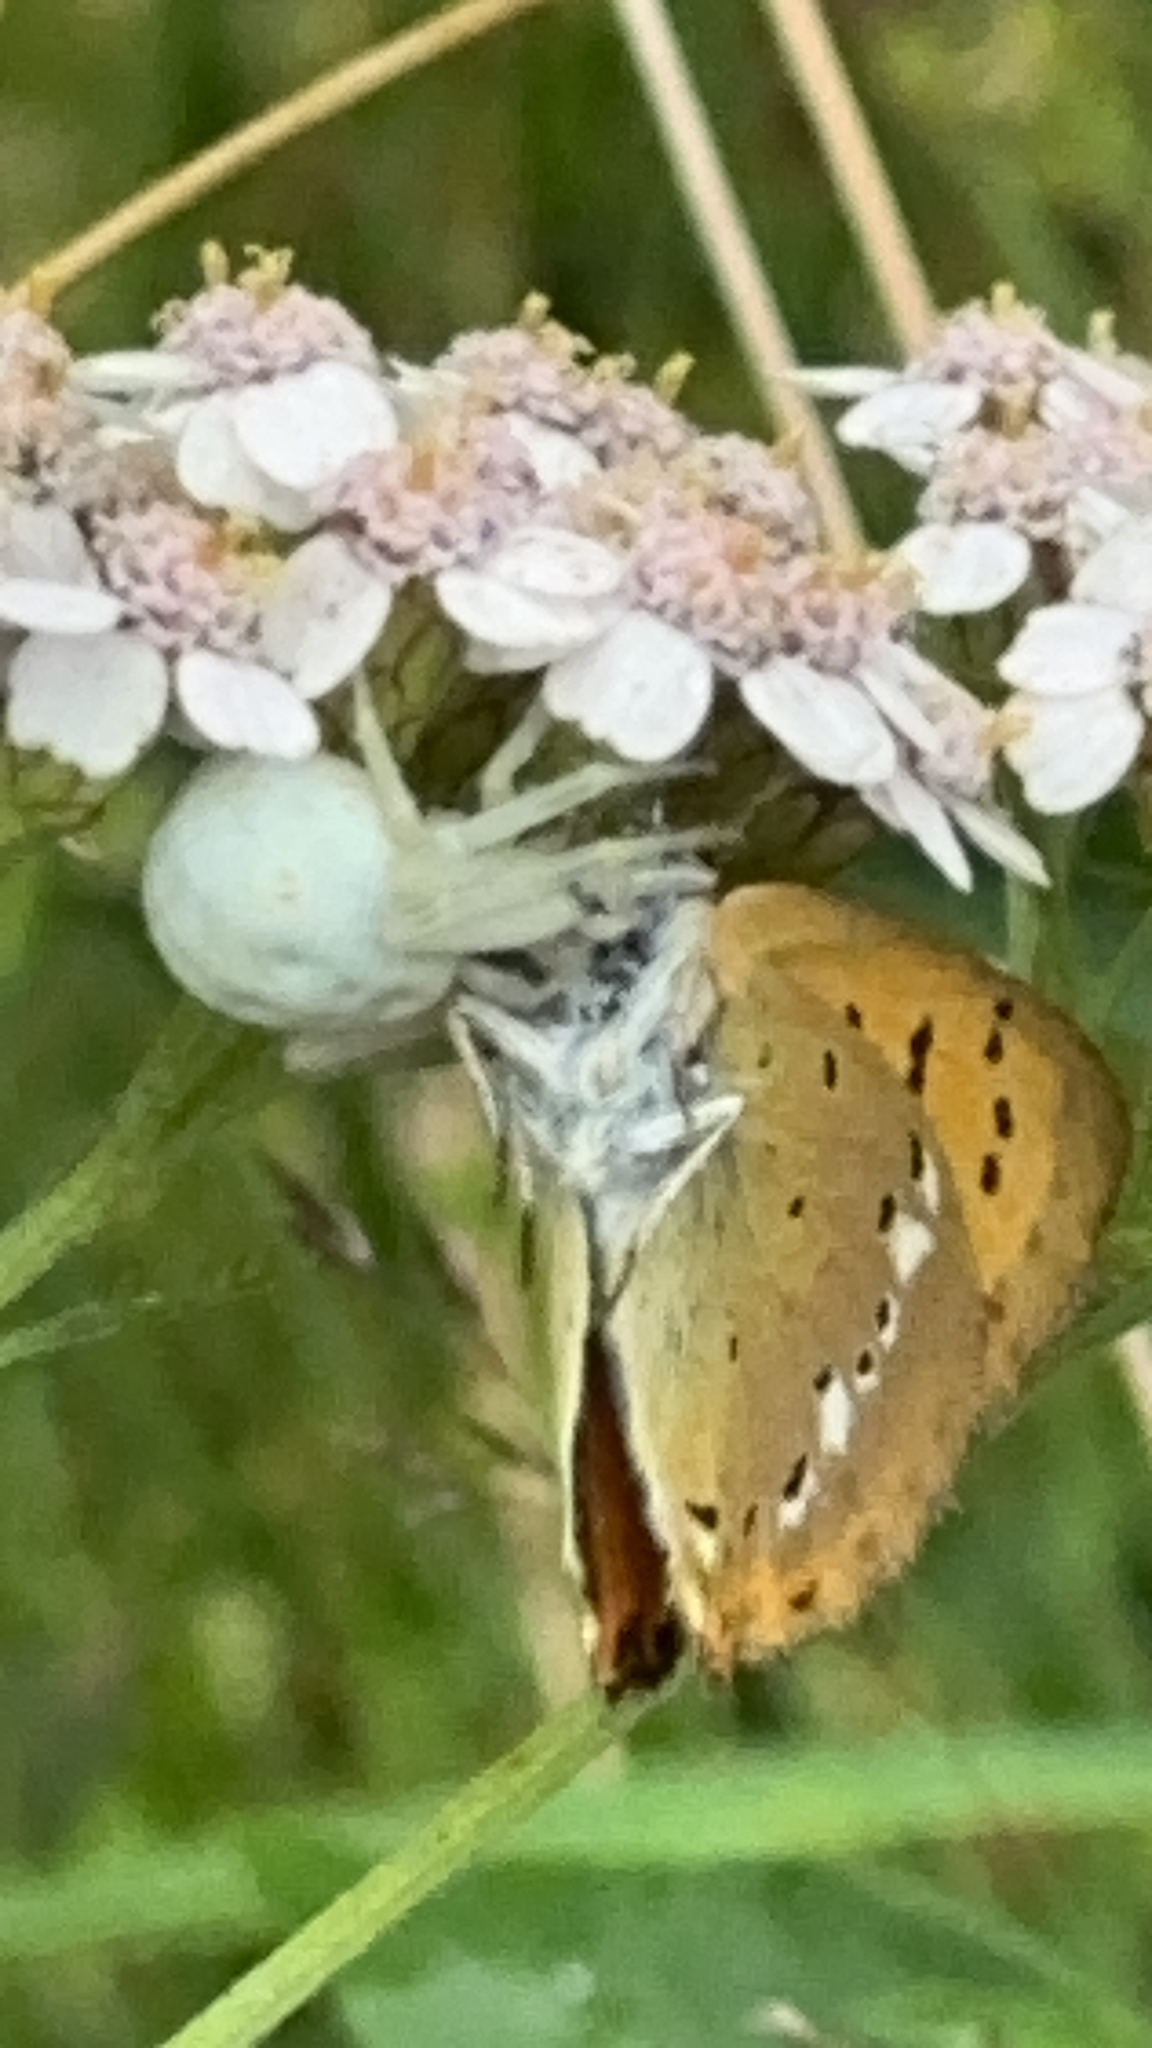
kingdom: Animalia
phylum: Arthropoda
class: Arachnida
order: Araneae
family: Thomisidae
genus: Misumena
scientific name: Misumena vatia
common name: Goldenrod crab spider
